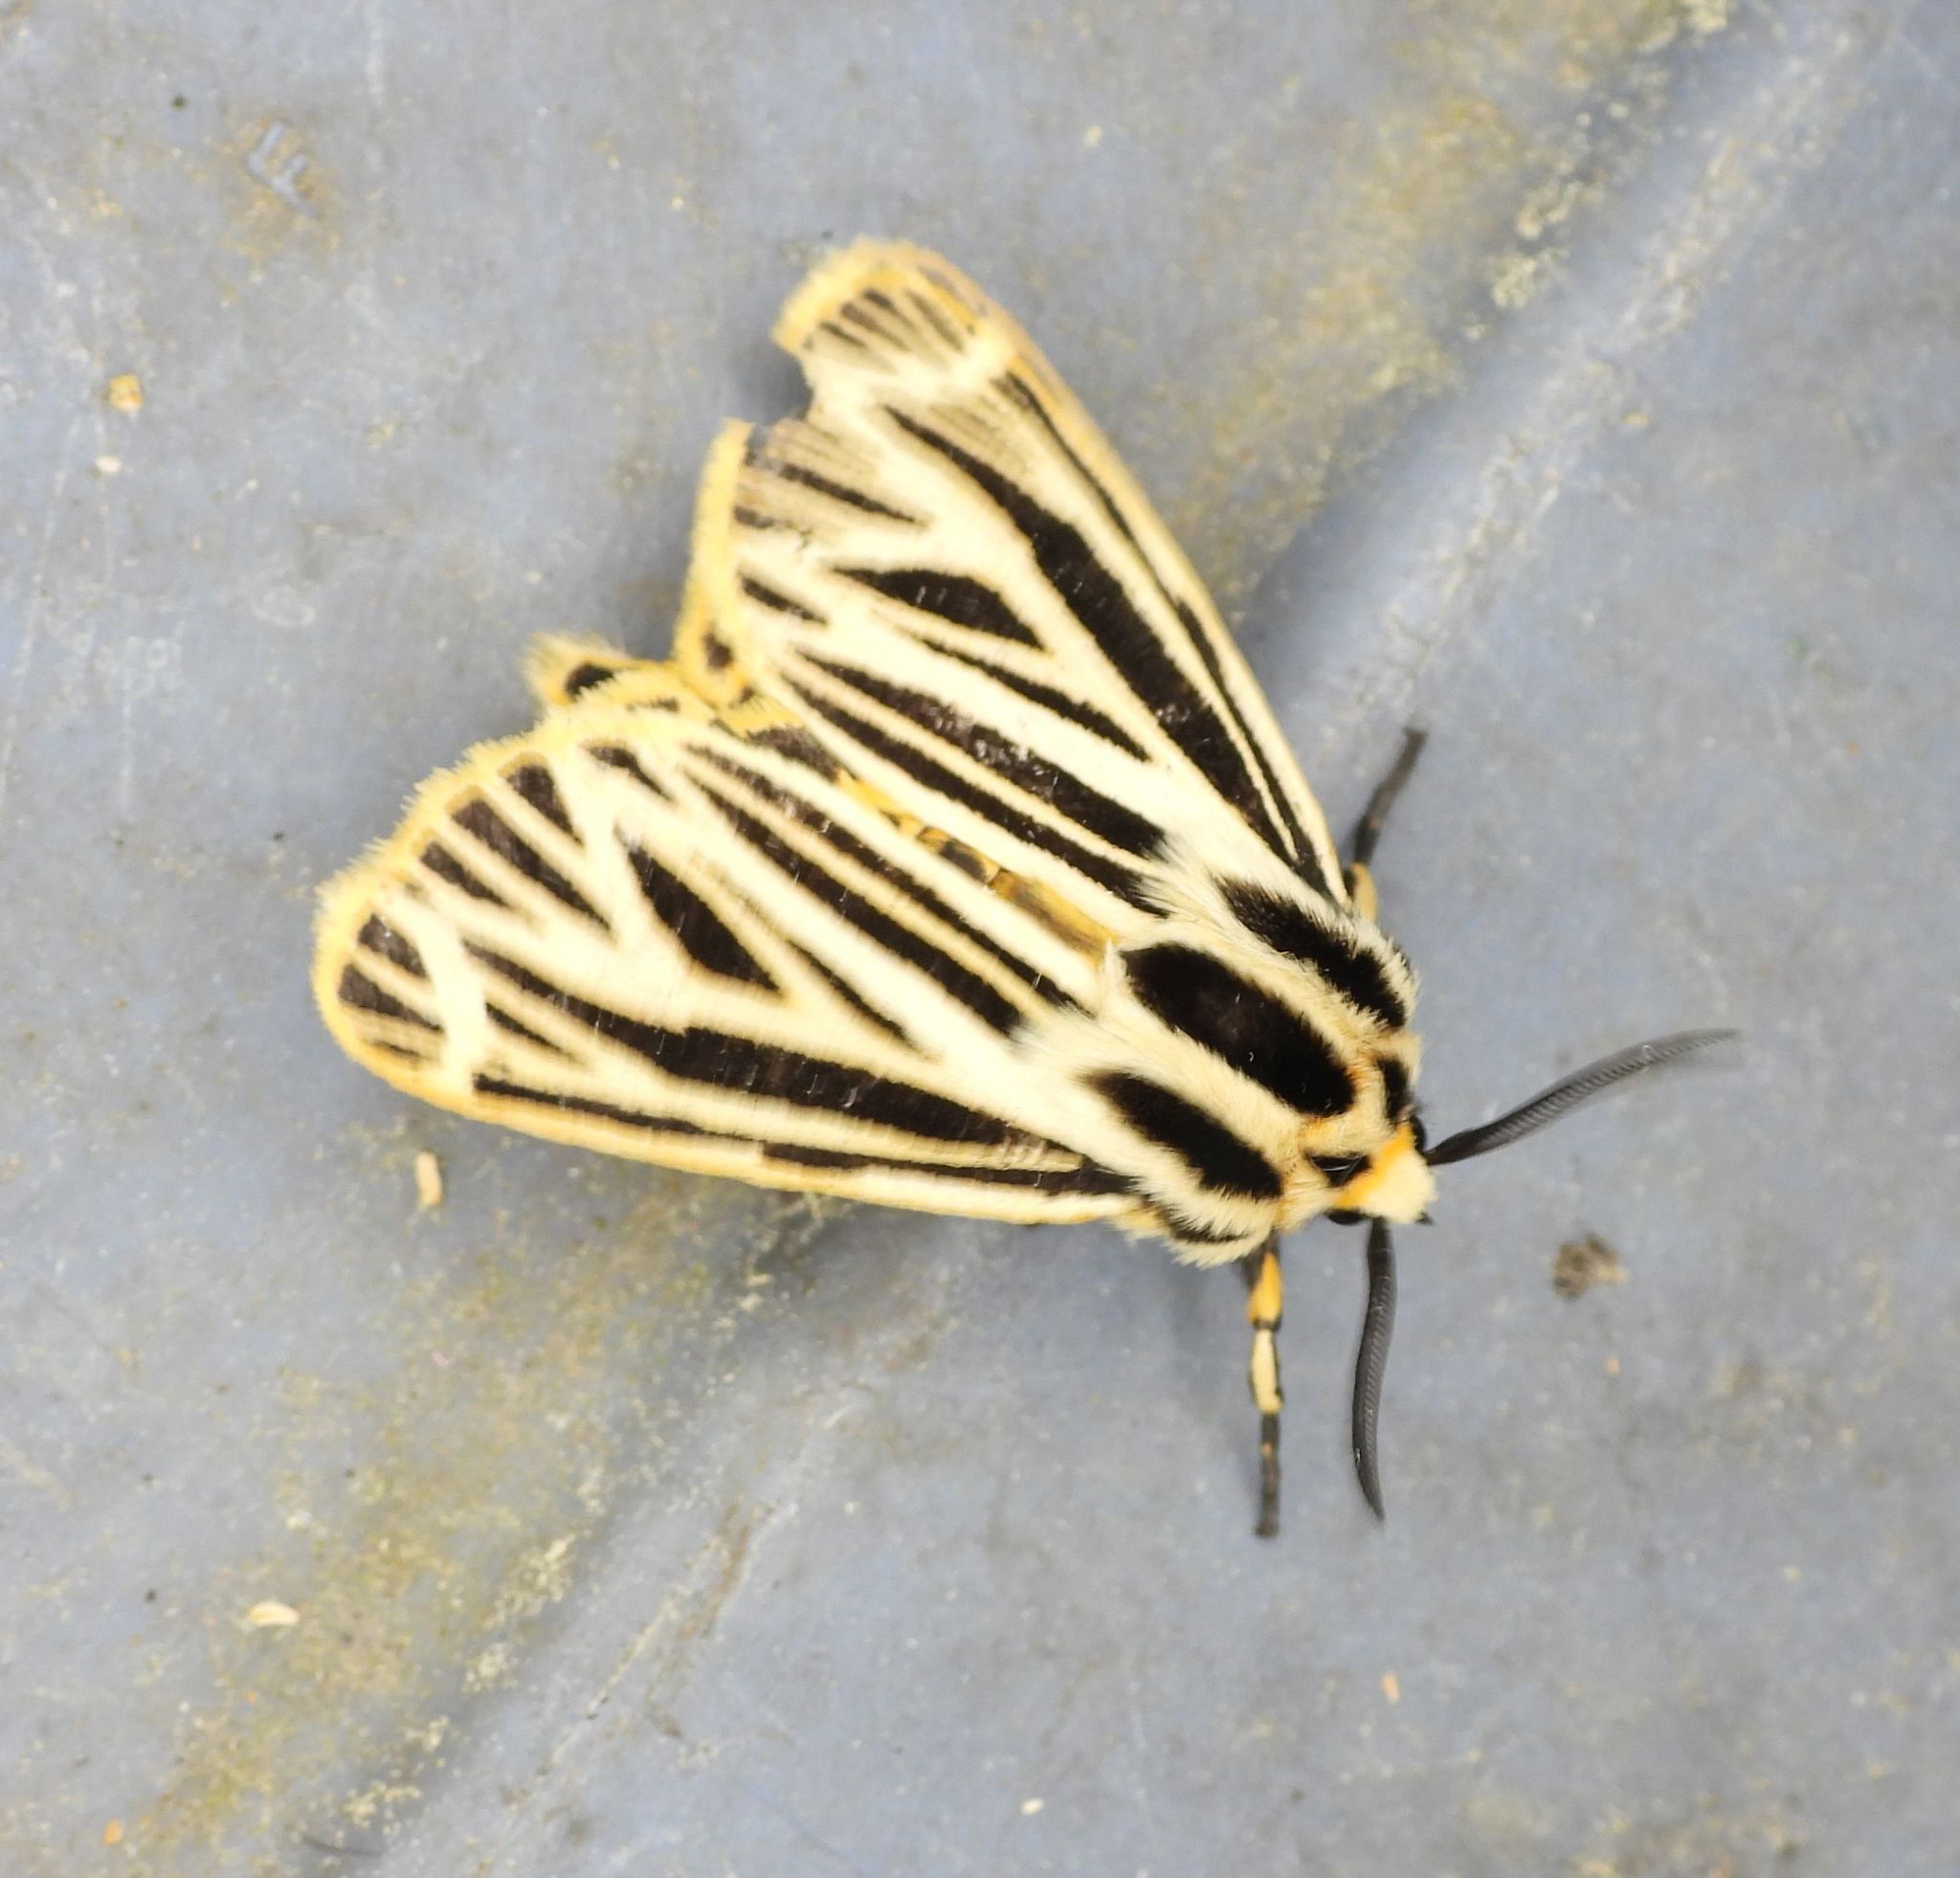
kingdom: Animalia
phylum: Arthropoda
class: Insecta
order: Lepidoptera
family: Erebidae
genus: Grammia
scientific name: Grammia virguncula
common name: Little tiger moth
